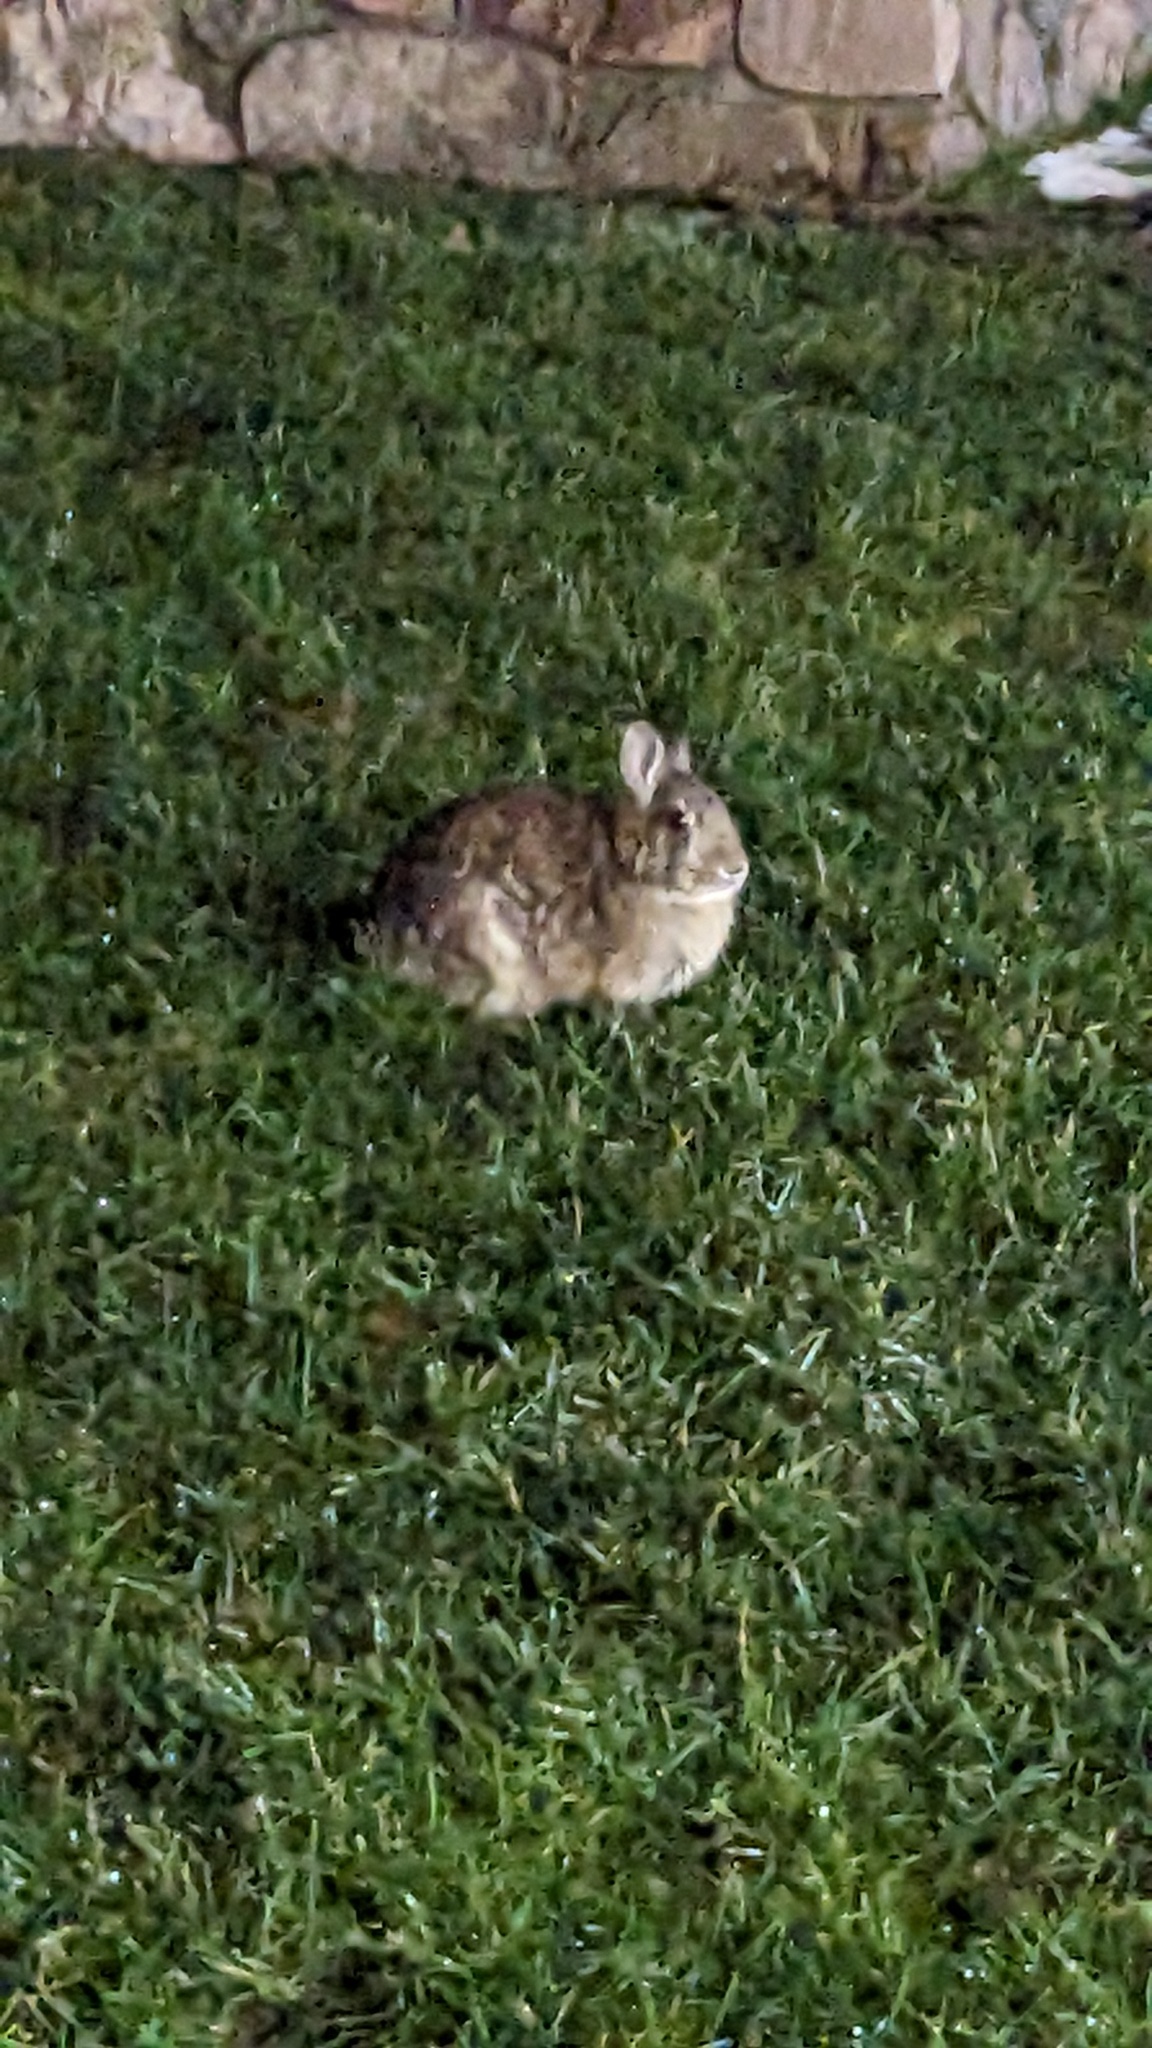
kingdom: Animalia
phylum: Chordata
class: Mammalia
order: Lagomorpha
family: Leporidae
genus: Sylvilagus
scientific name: Sylvilagus floridanus
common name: Eastern cottontail
